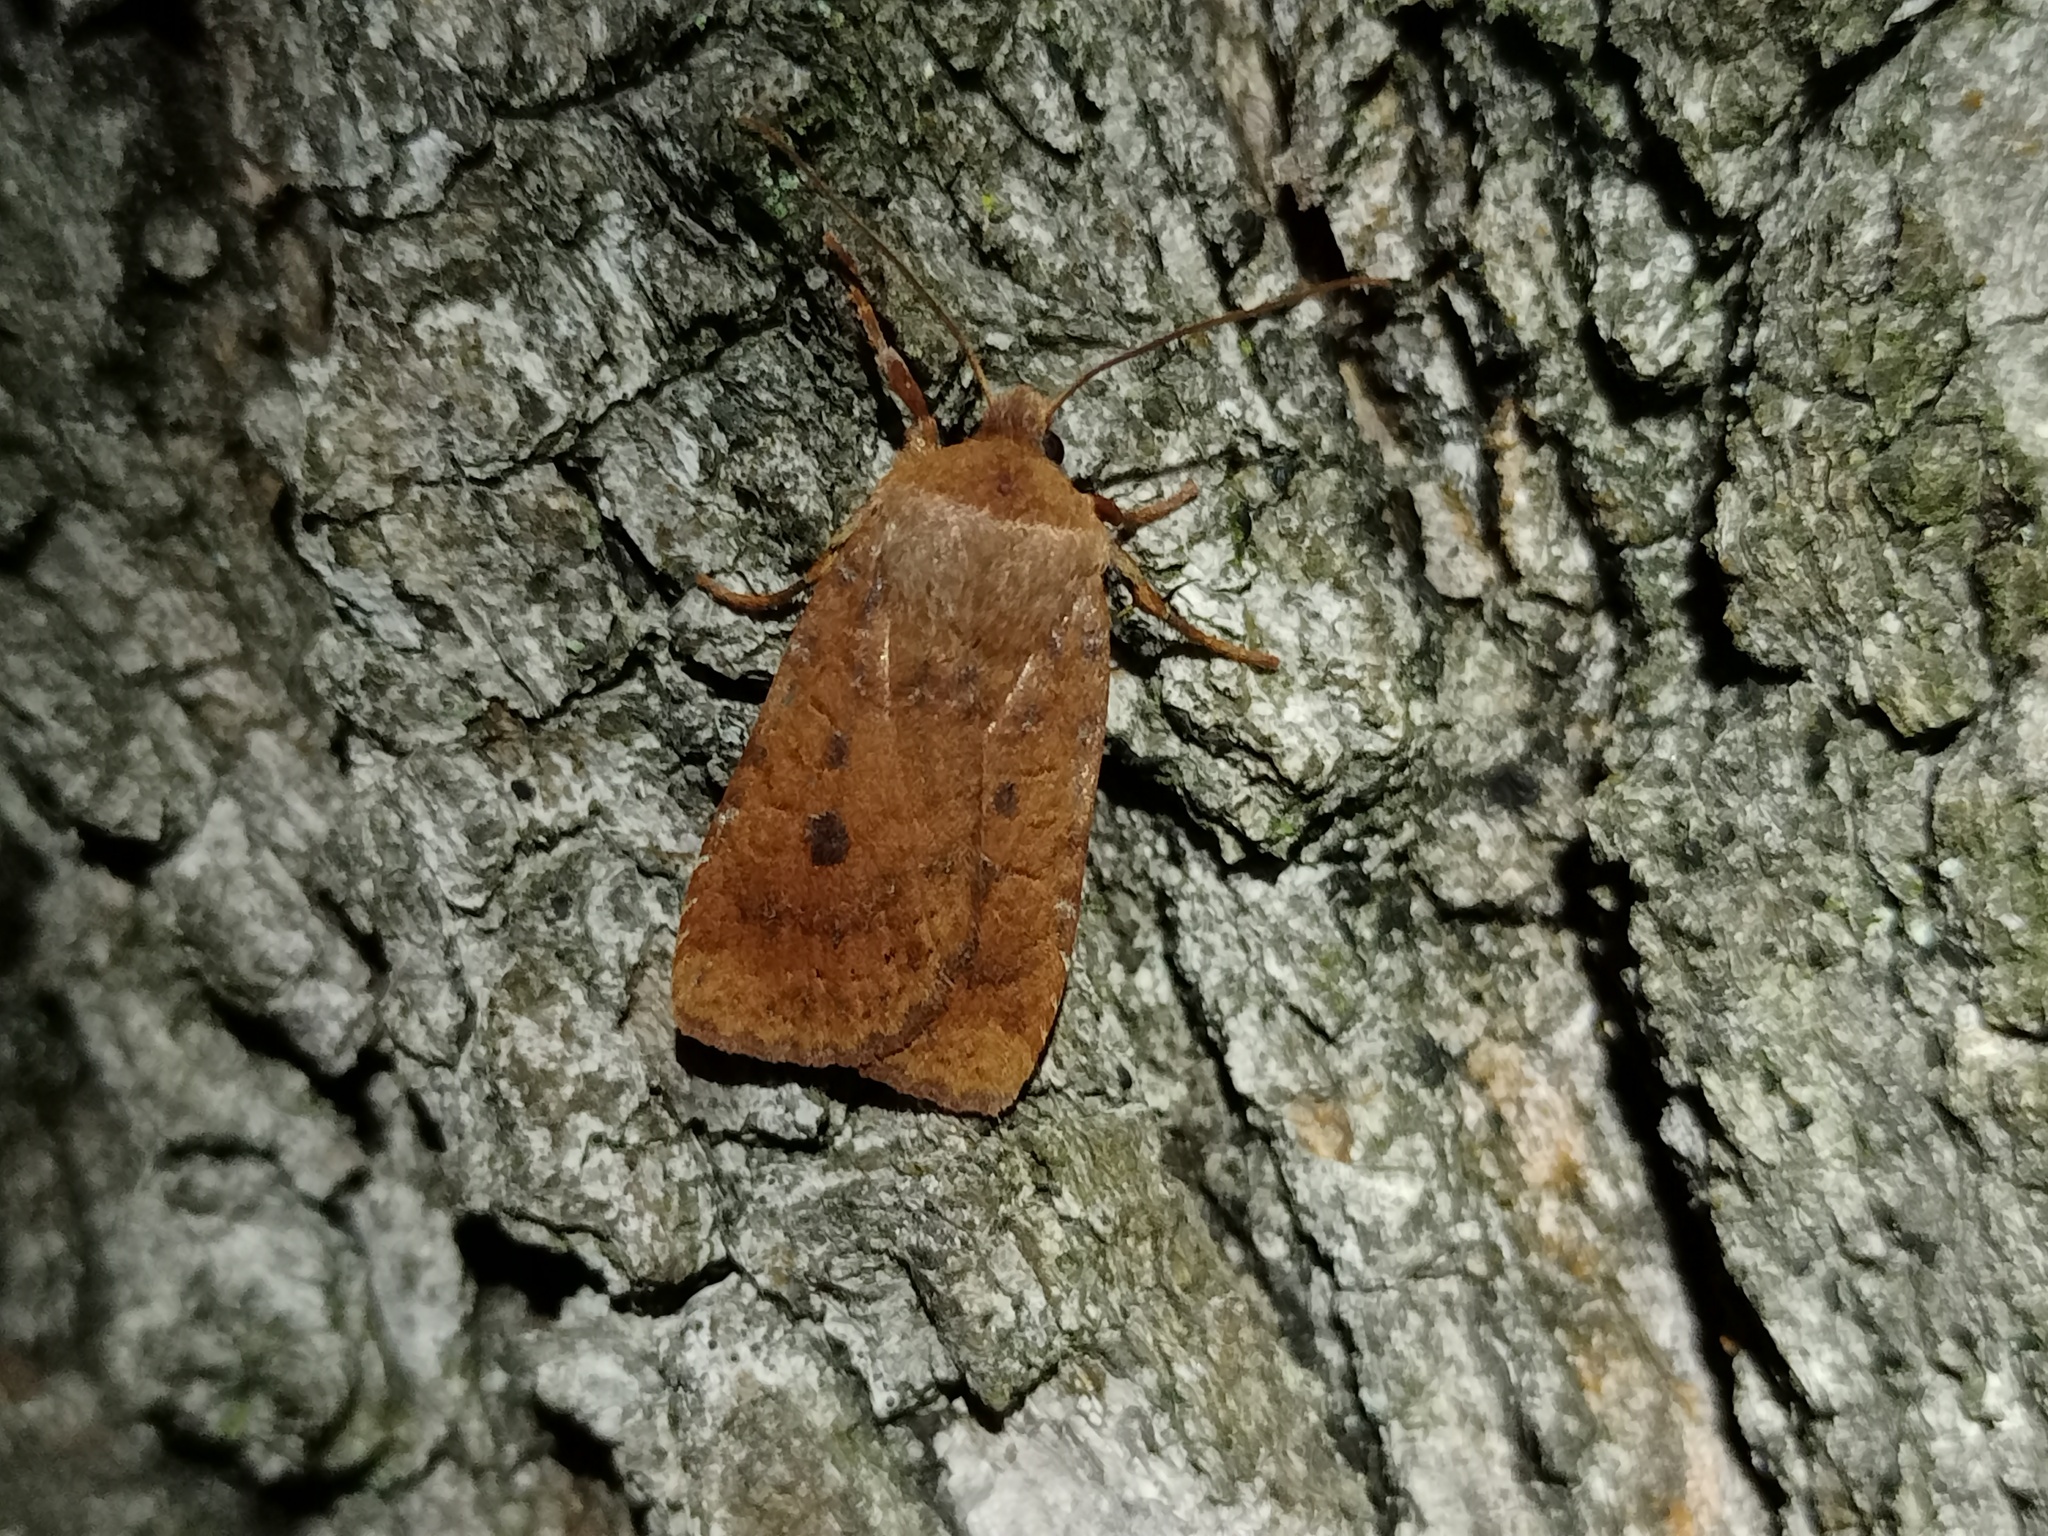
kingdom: Animalia
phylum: Arthropoda
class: Insecta
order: Lepidoptera
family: Noctuidae
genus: Conistra
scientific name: Conistra vaccinii
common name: Chestnut
